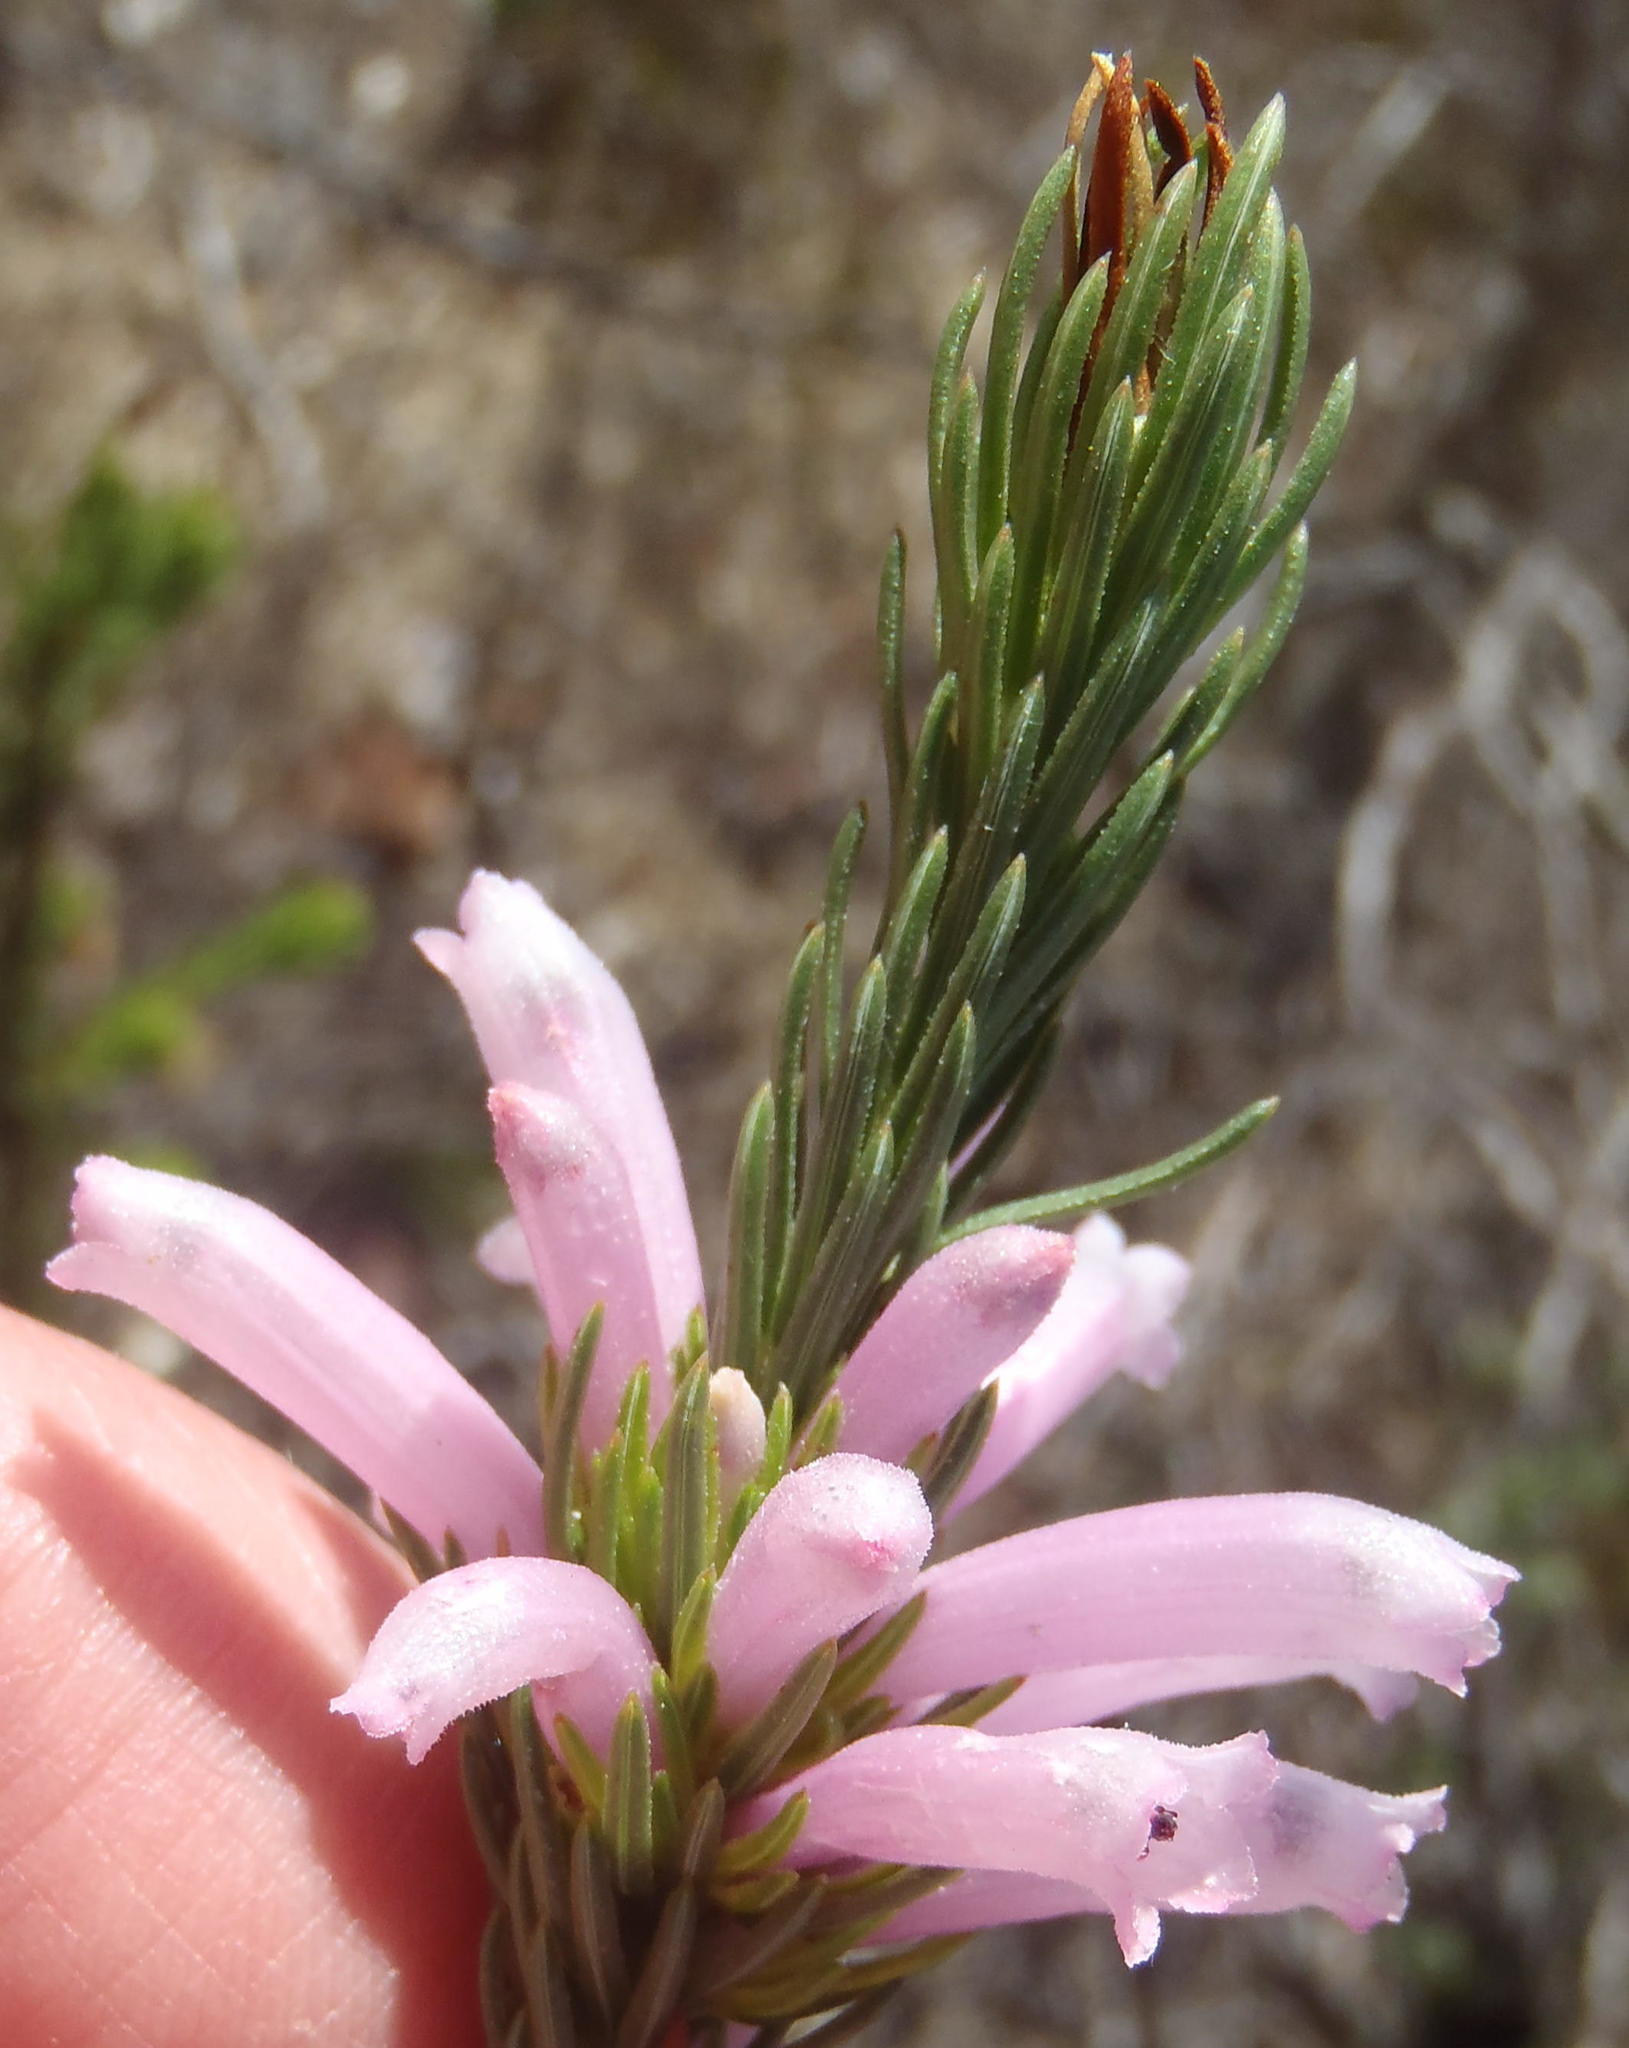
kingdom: Plantae
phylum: Tracheophyta
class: Magnoliopsida
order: Ericales
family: Ericaceae
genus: Erica
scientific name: Erica viscaria
